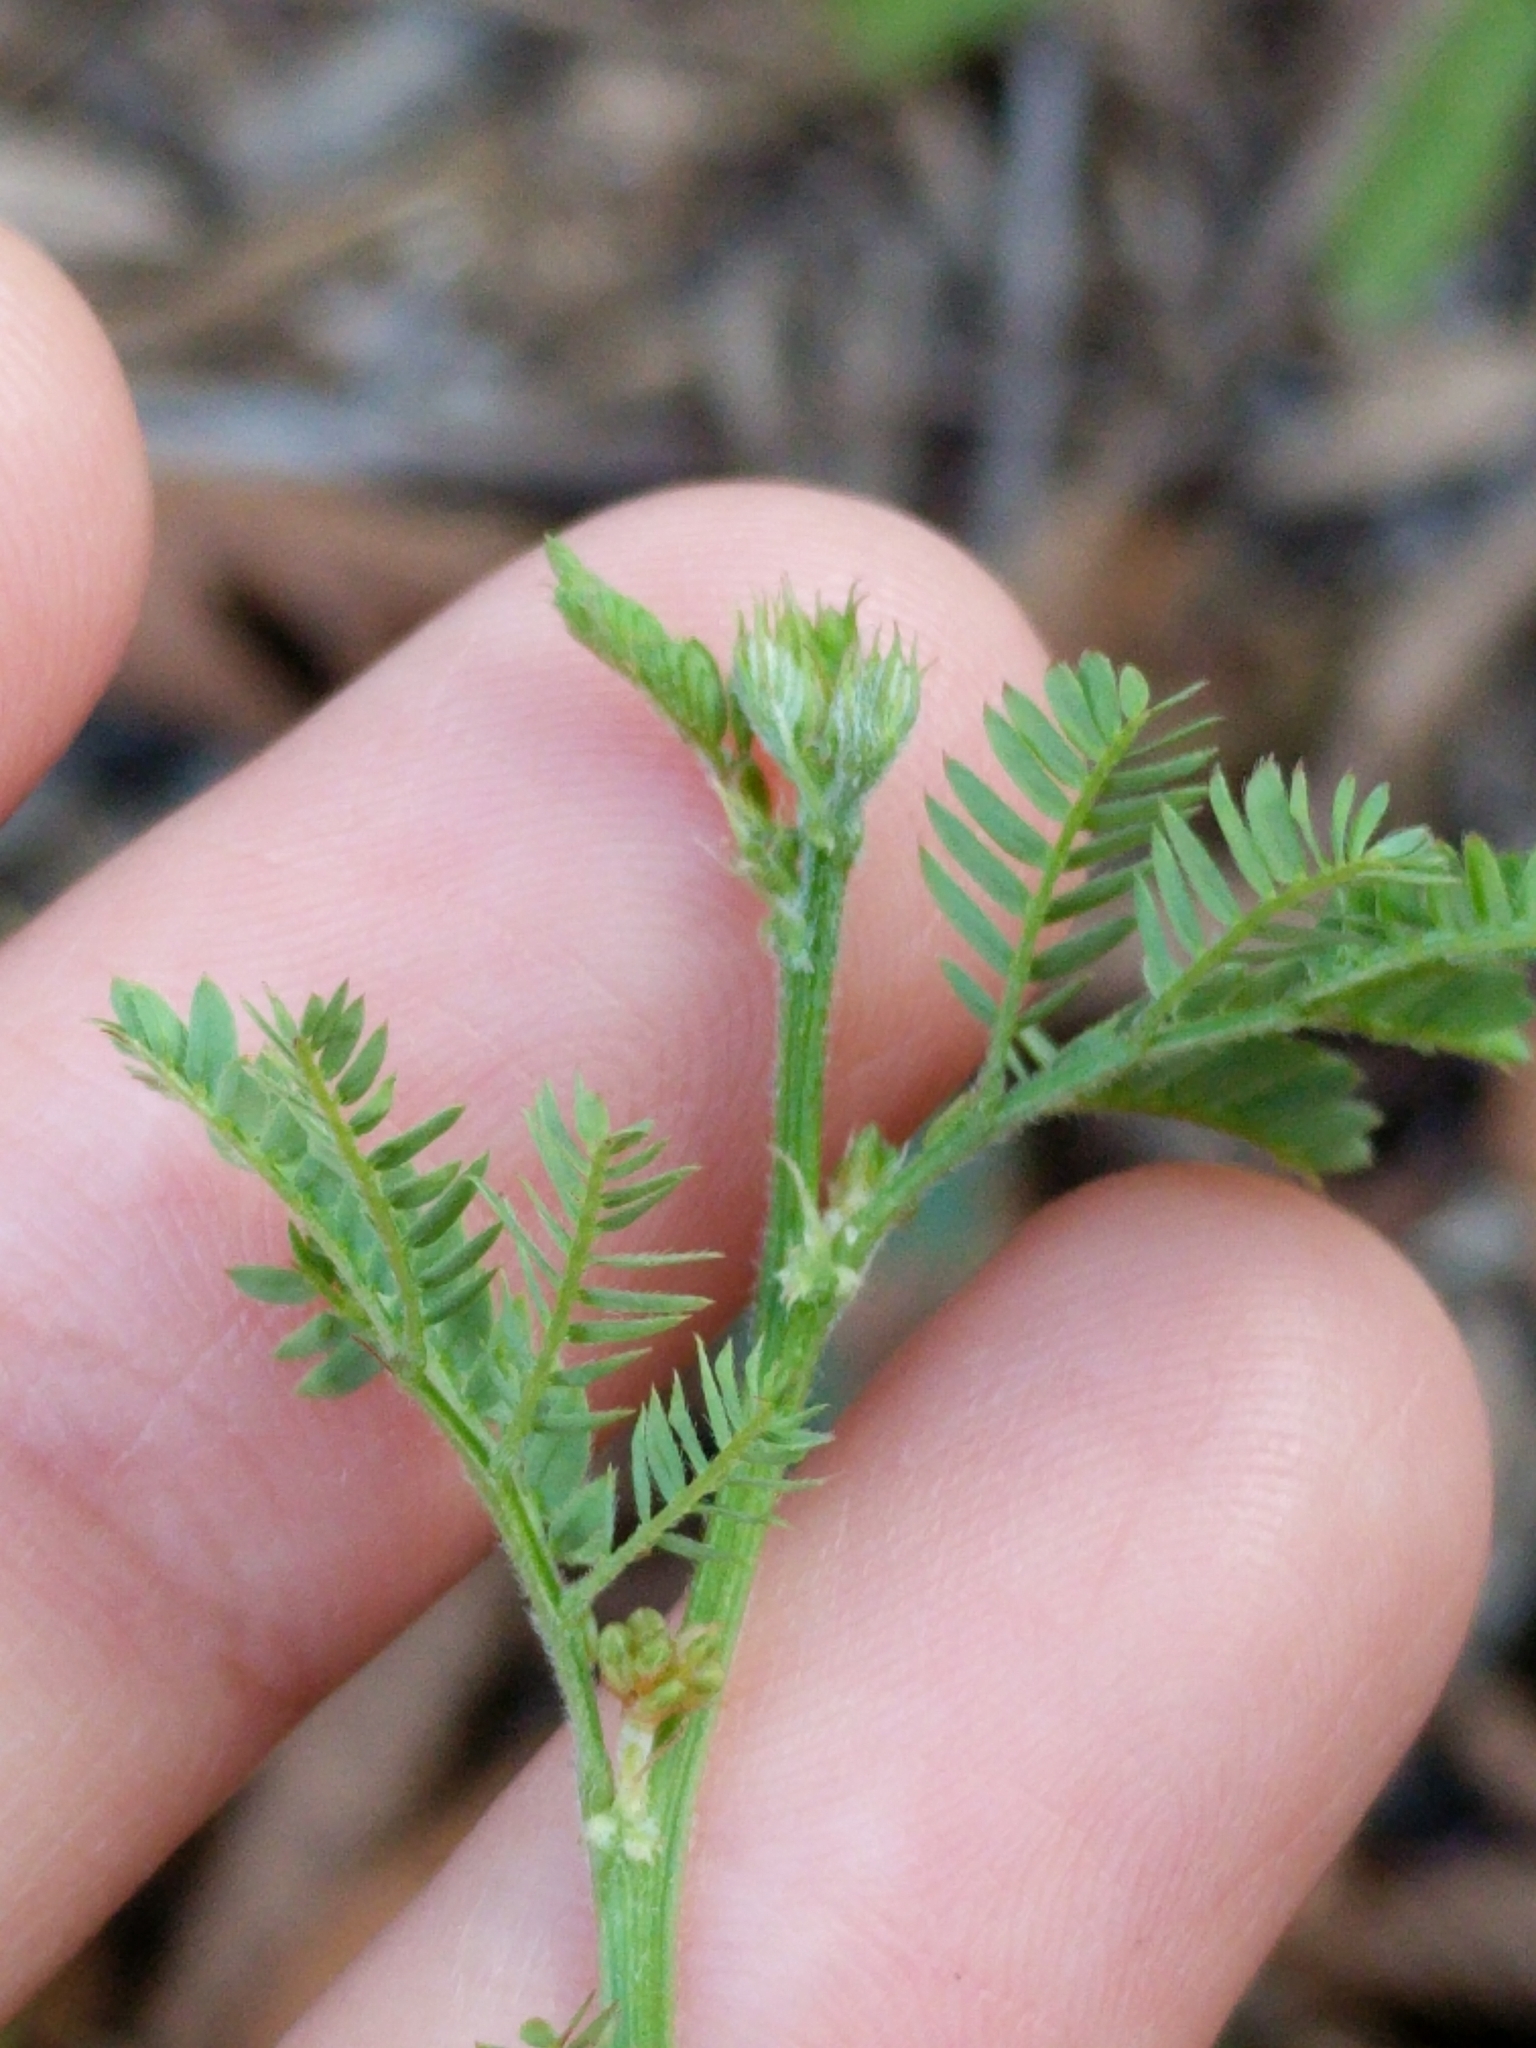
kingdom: Plantae
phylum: Tracheophyta
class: Magnoliopsida
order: Fabales
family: Fabaceae
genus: Desmanthus
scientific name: Desmanthus acuminatus
